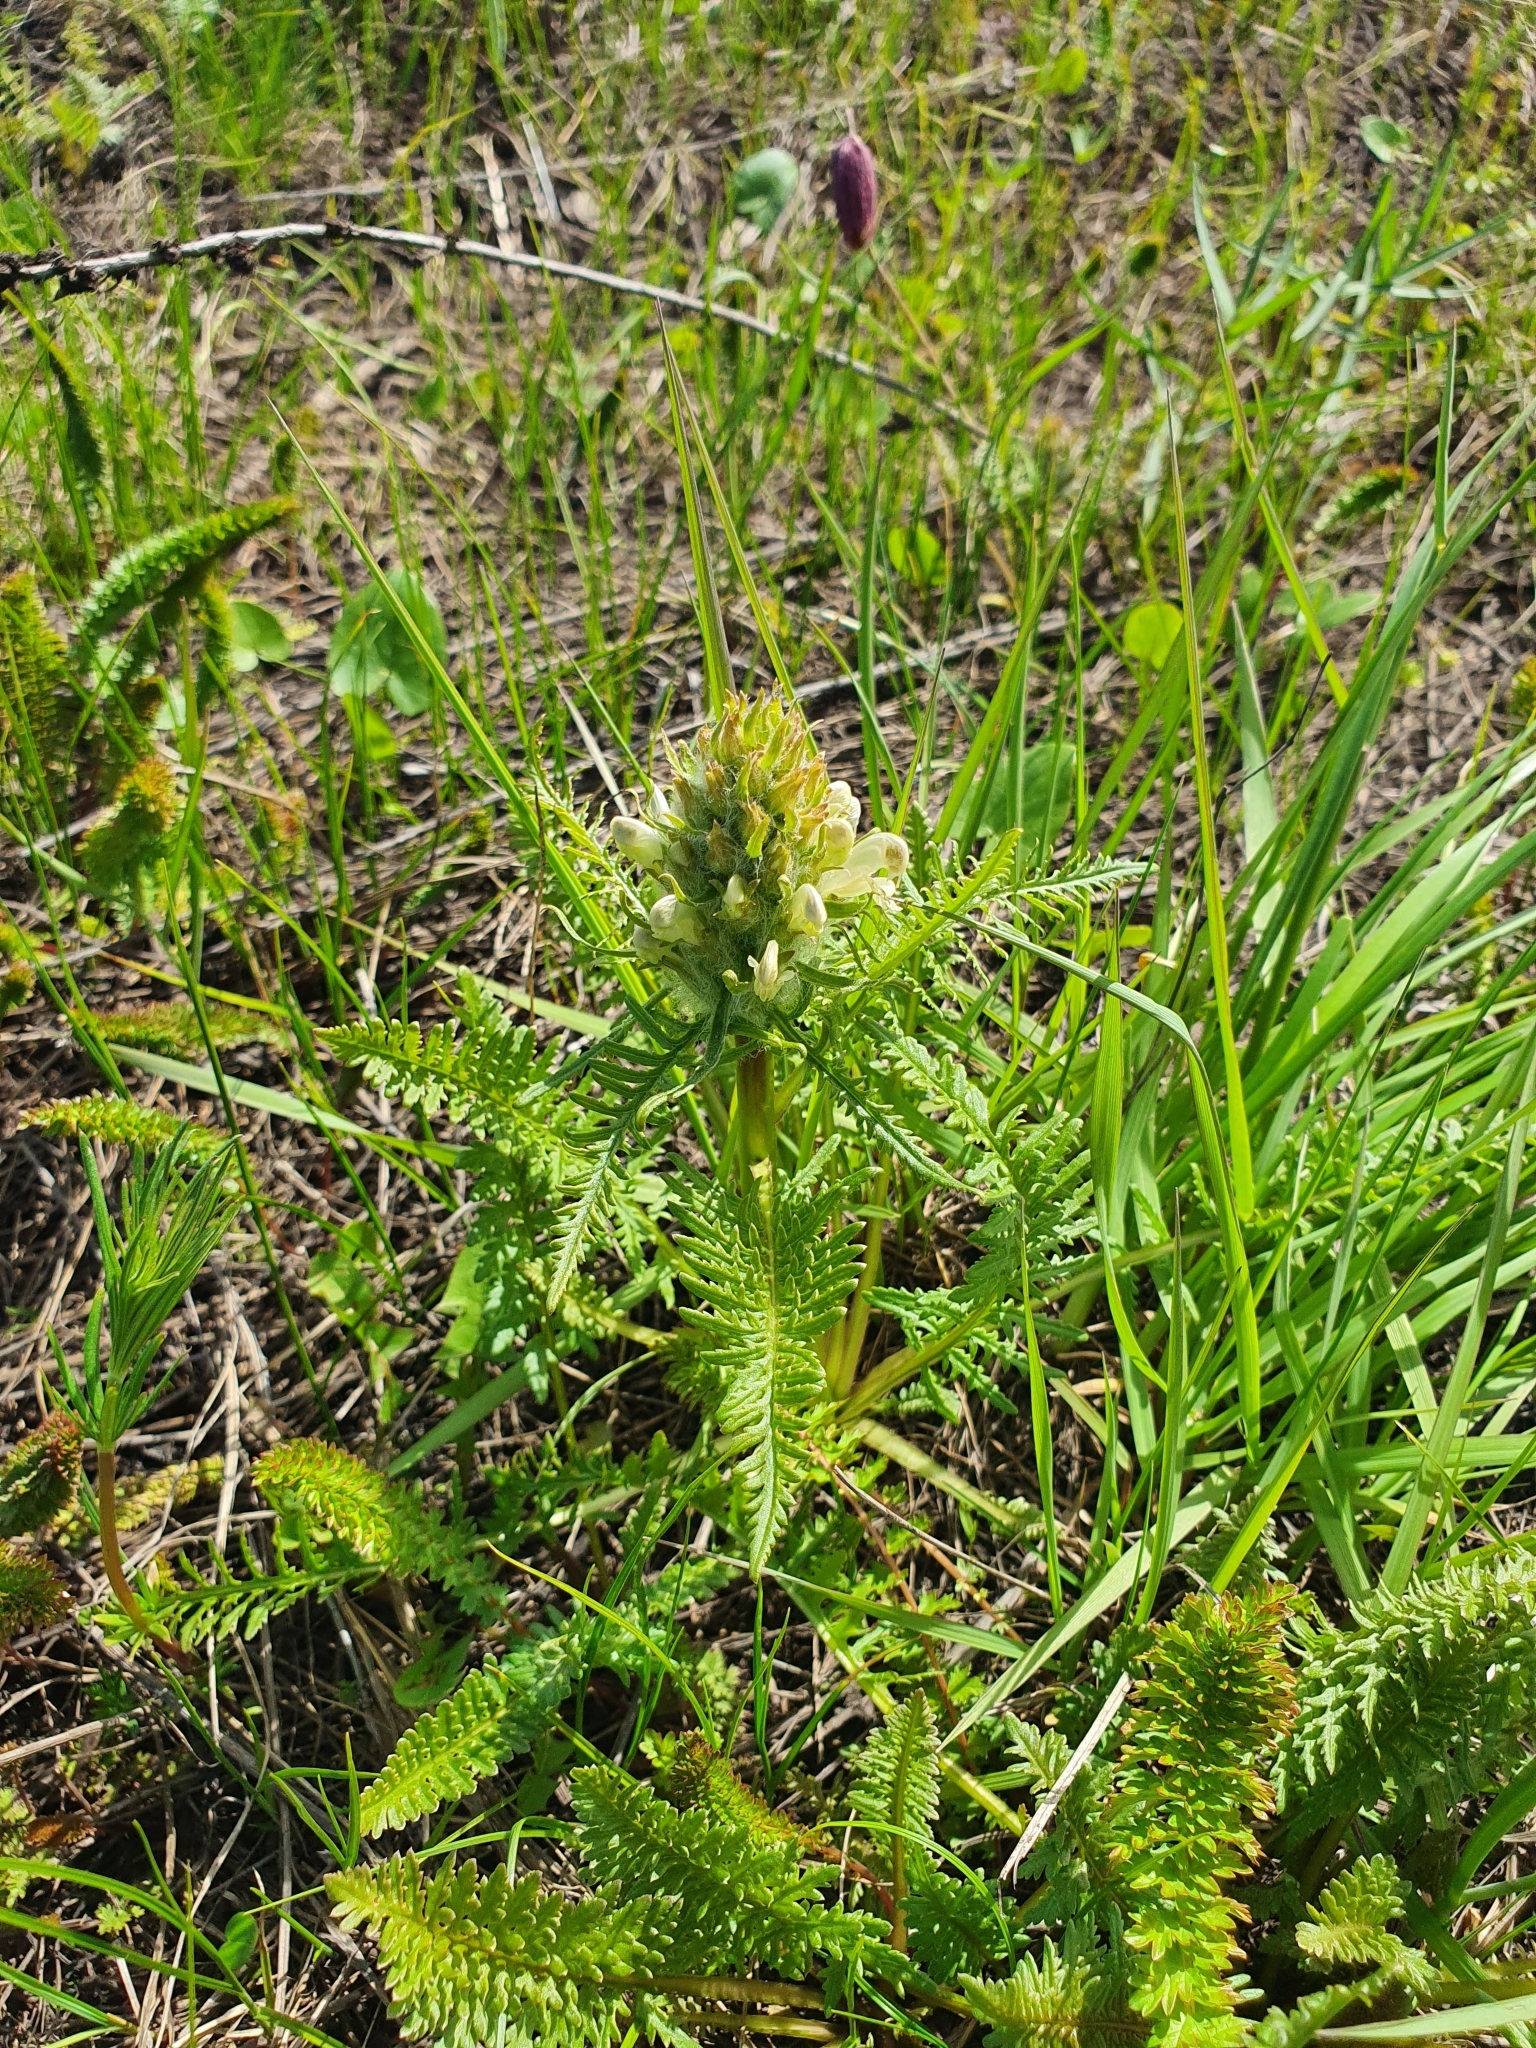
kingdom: Plantae
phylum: Tracheophyta
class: Magnoliopsida
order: Lamiales
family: Orobanchaceae
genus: Pedicularis
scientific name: Pedicularis dasystachys
